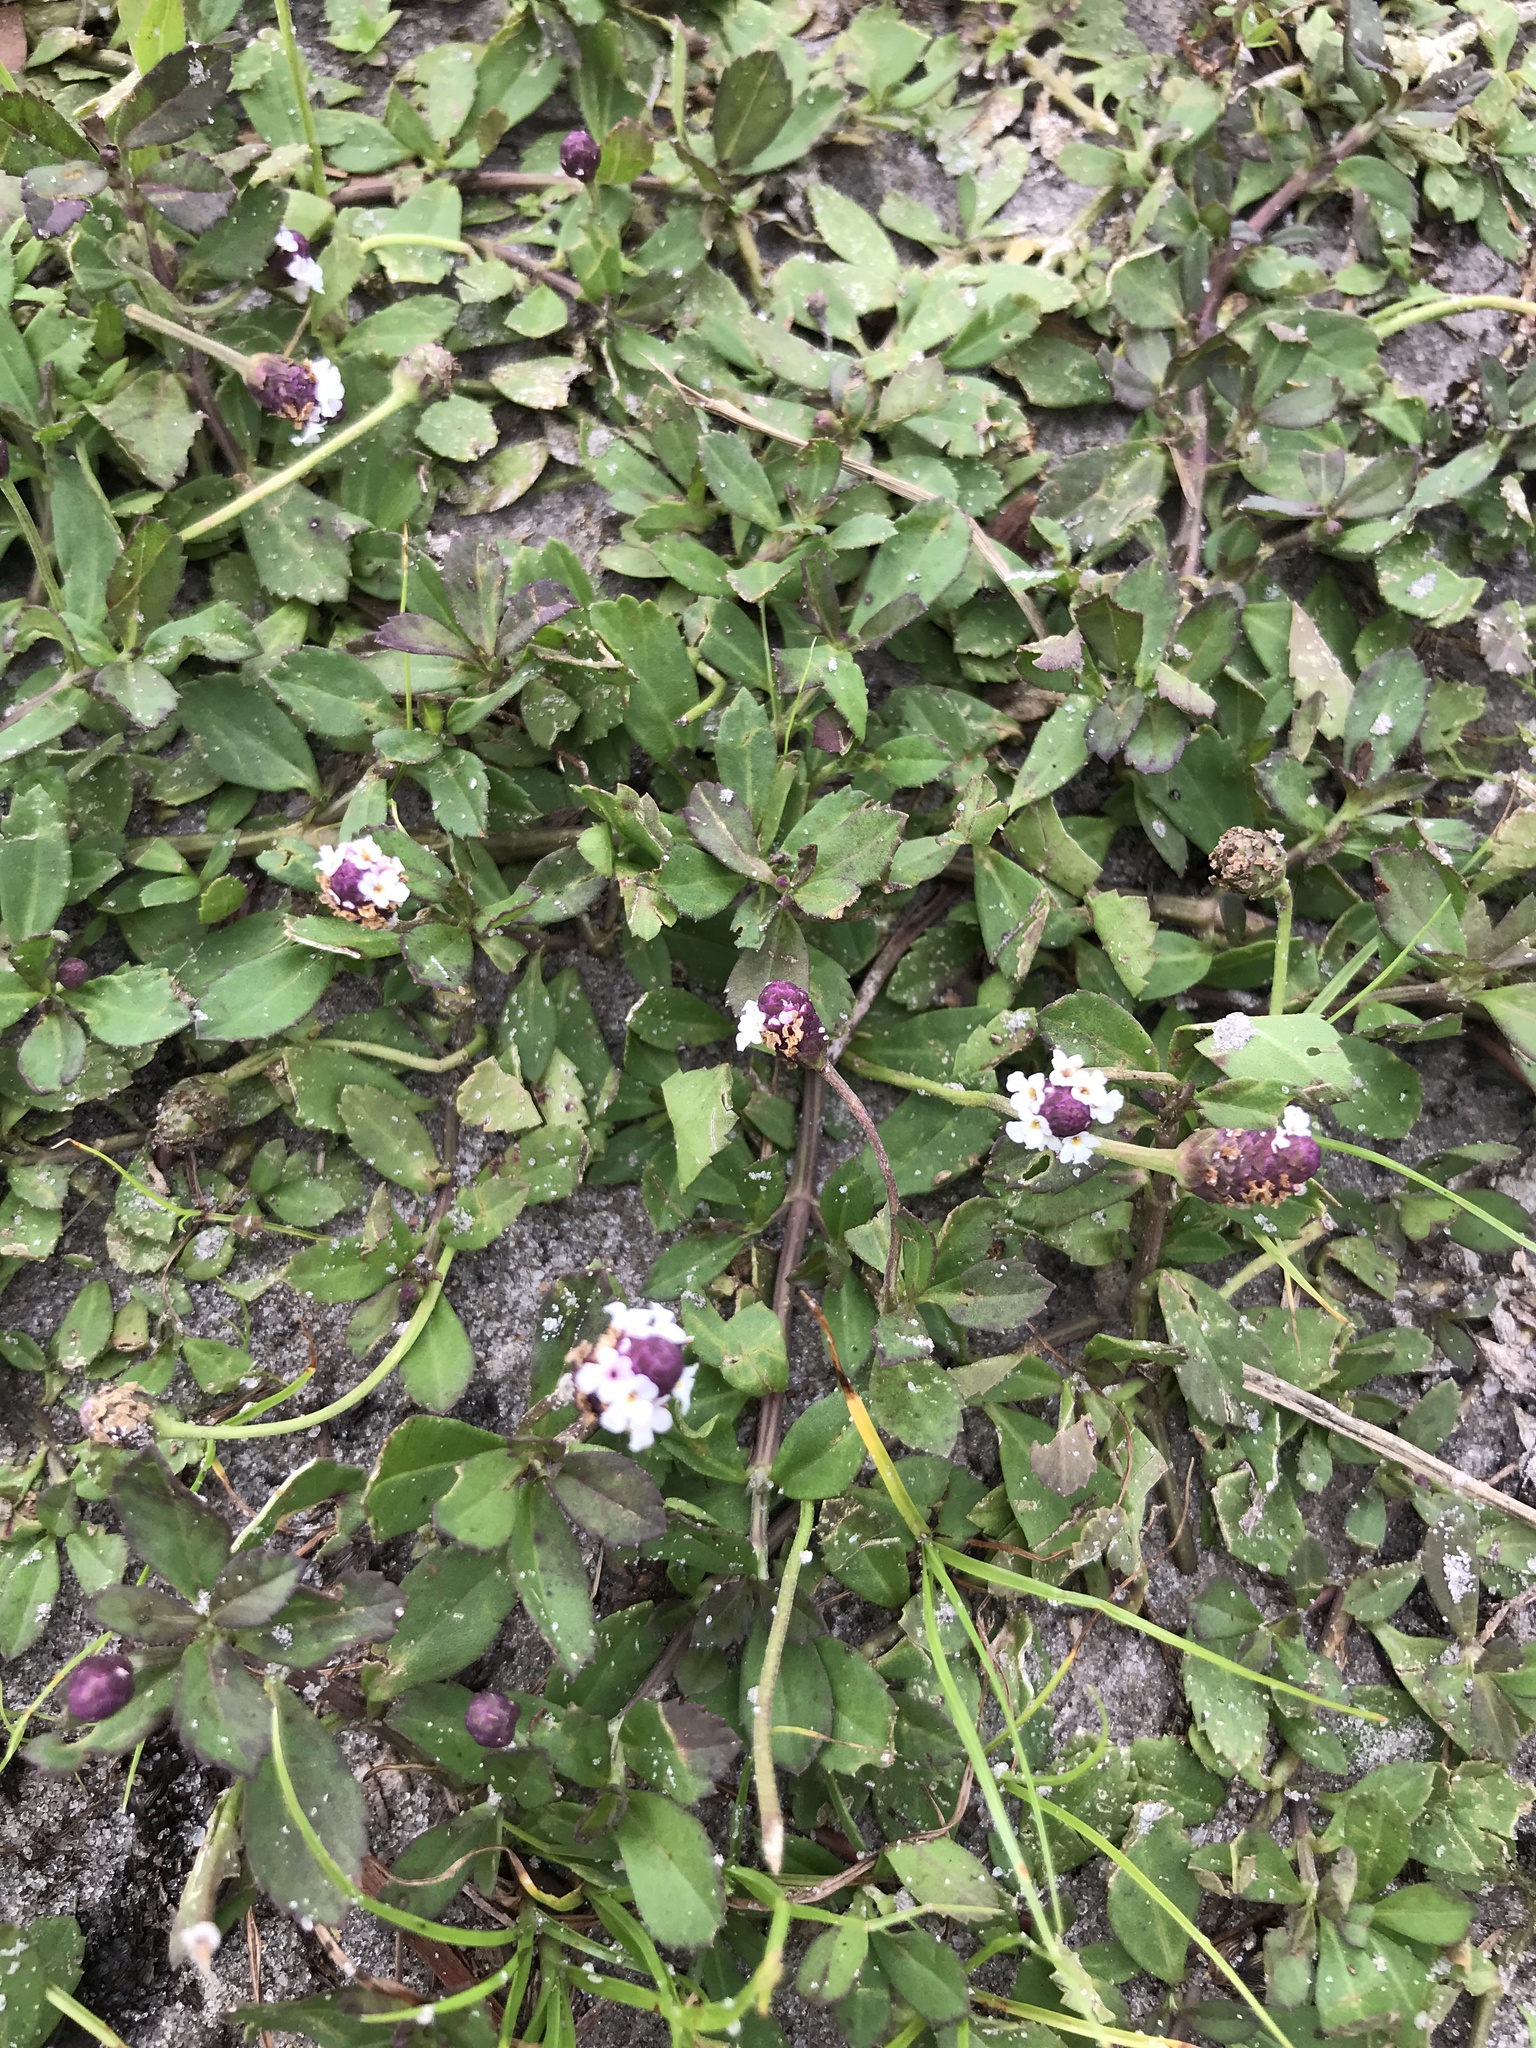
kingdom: Plantae
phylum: Tracheophyta
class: Magnoliopsida
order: Lamiales
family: Verbenaceae
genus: Phyla
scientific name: Phyla nodiflora
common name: Frogfruit
